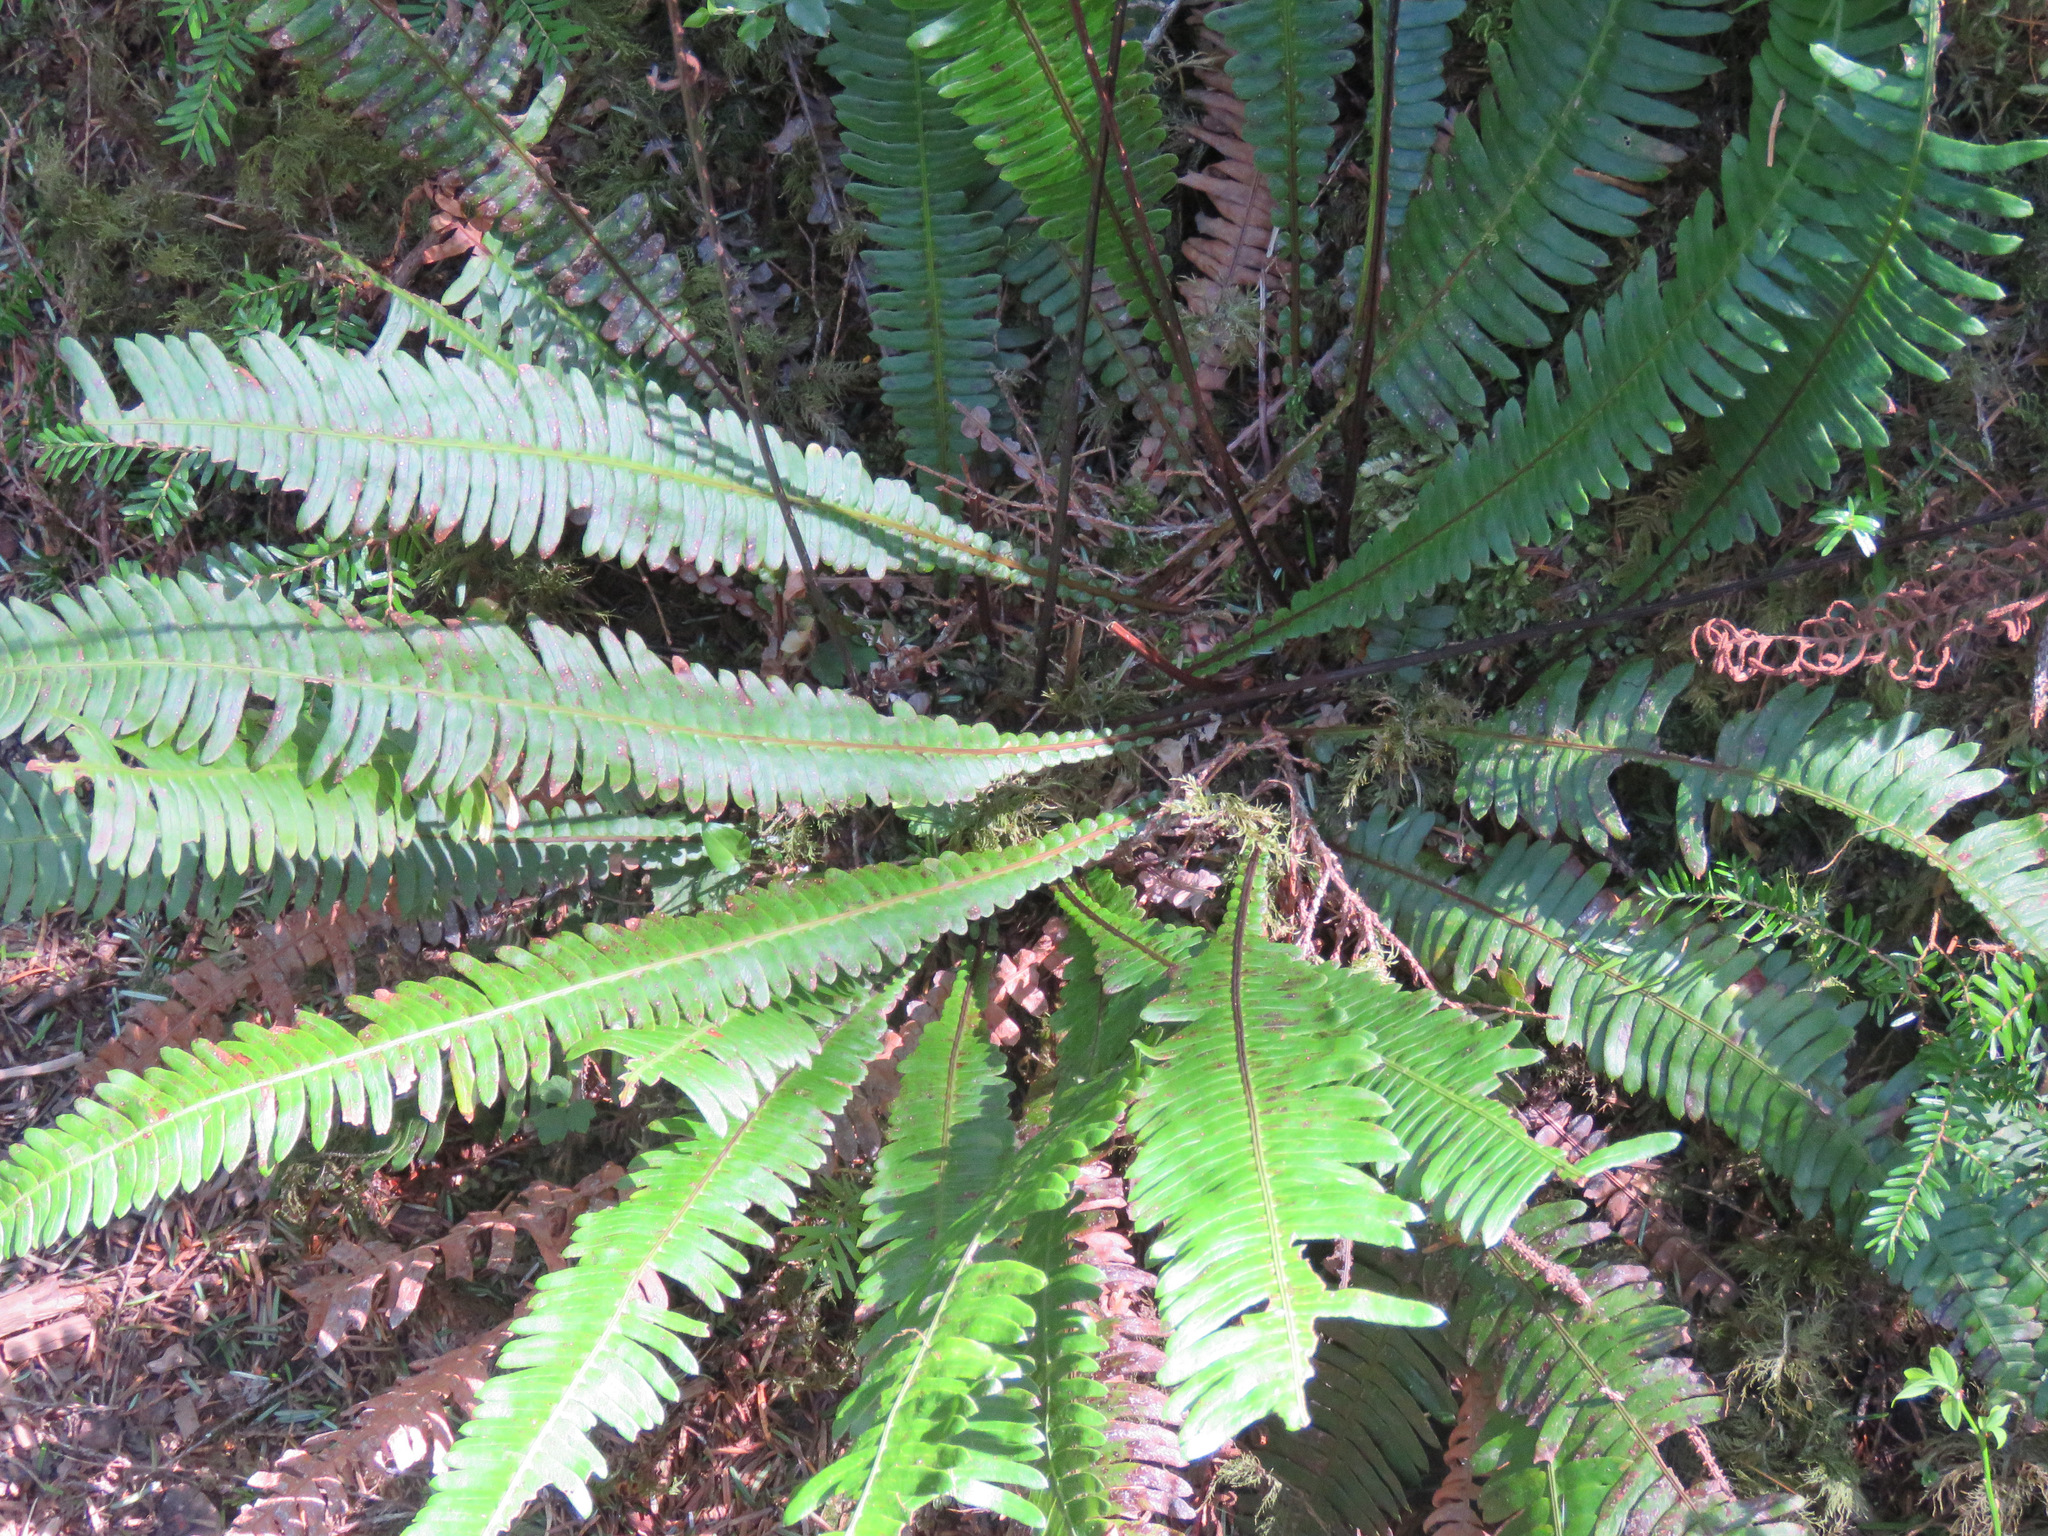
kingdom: Plantae
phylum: Tracheophyta
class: Polypodiopsida
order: Polypodiales
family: Blechnaceae
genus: Struthiopteris
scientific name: Struthiopteris spicant
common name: Deer fern
